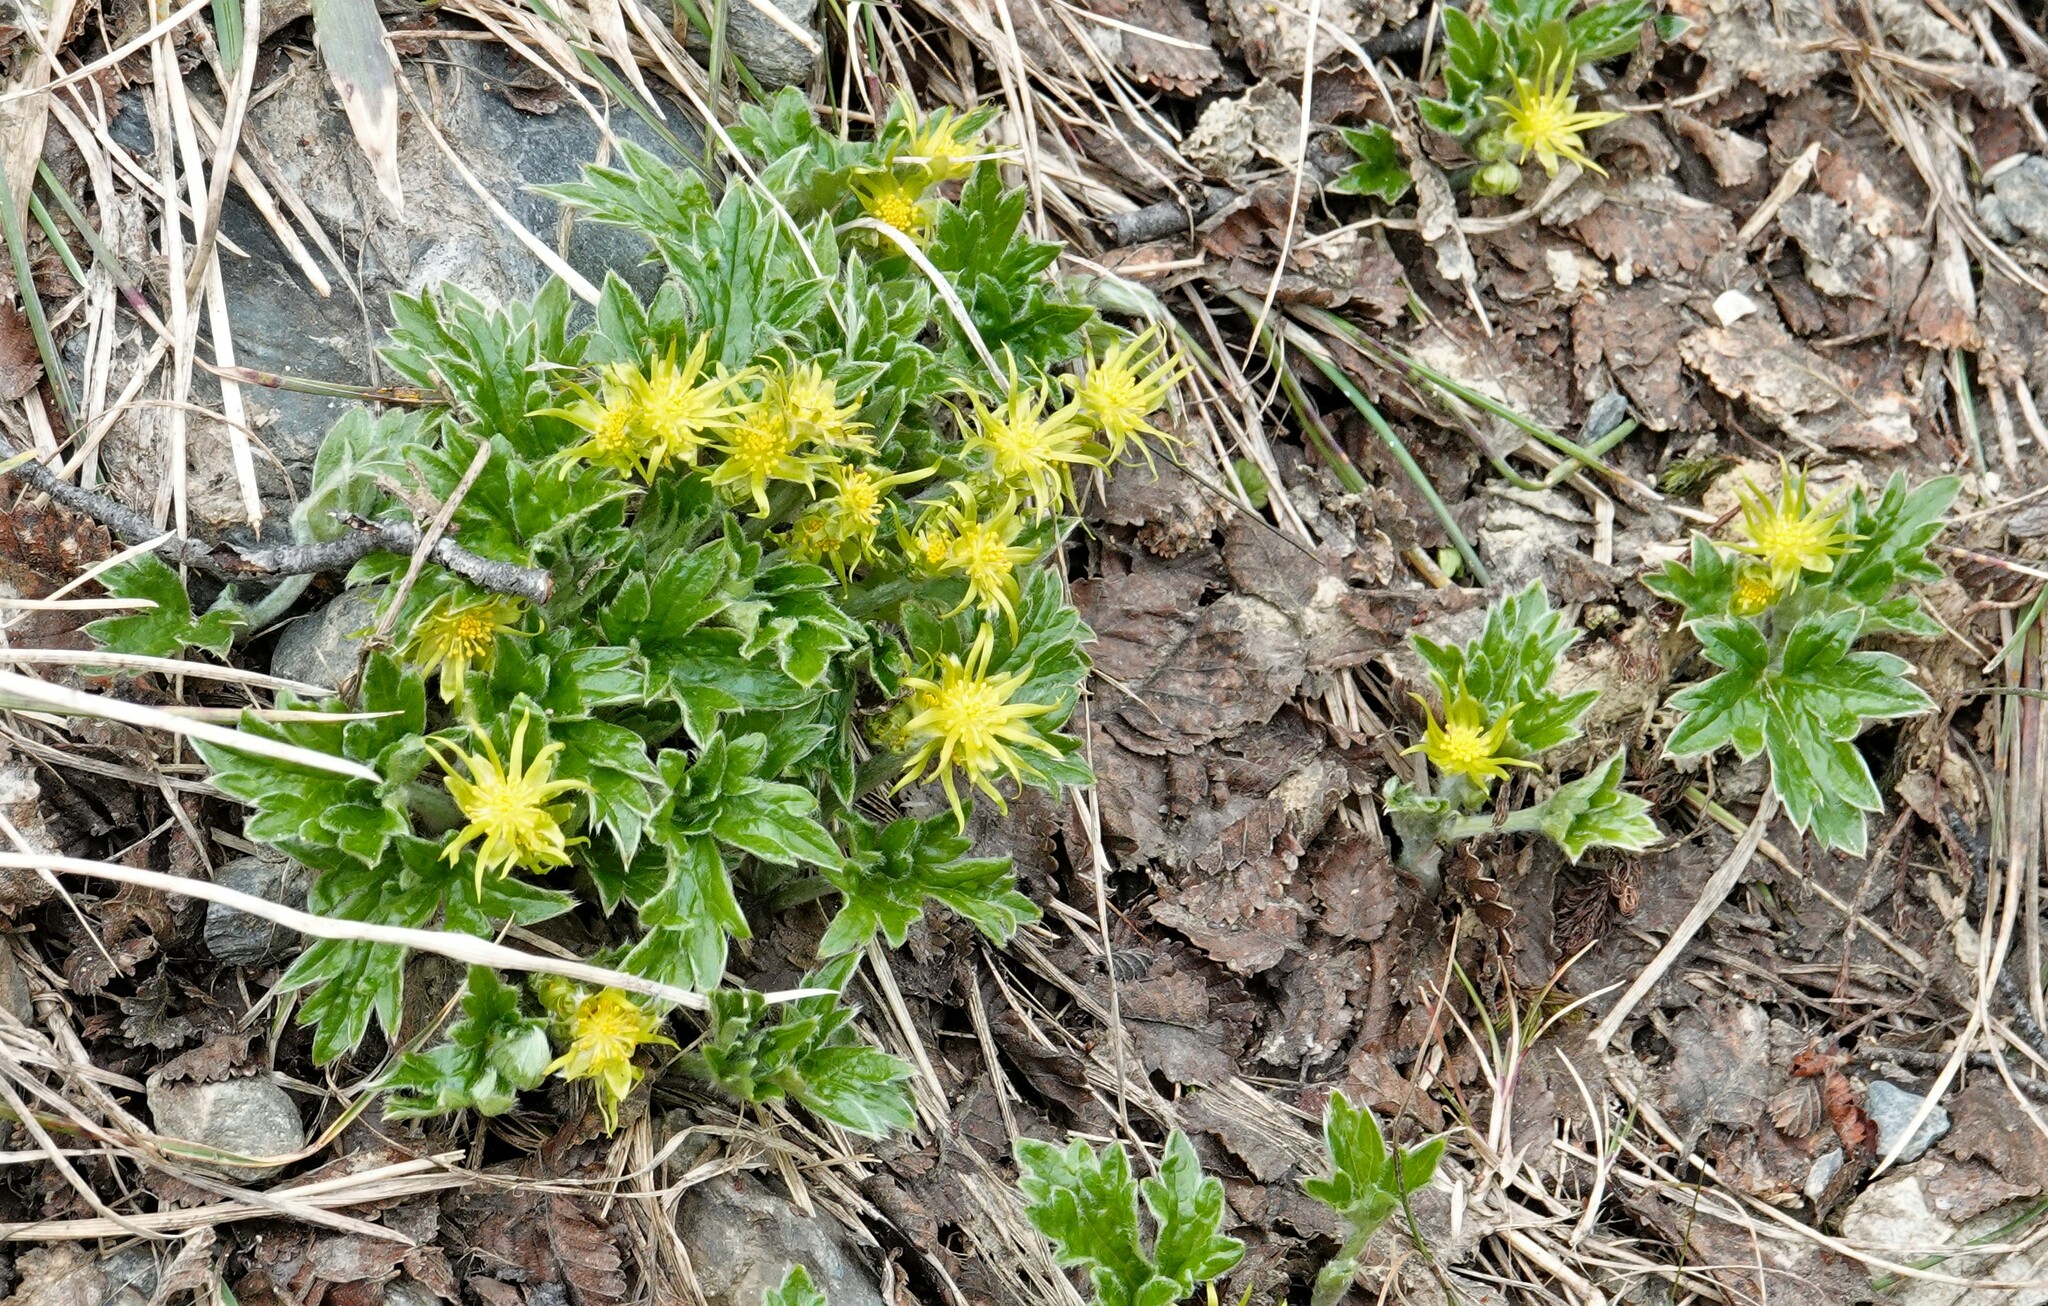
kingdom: Plantae
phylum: Tracheophyta
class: Magnoliopsida
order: Ranunculales
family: Ranunculaceae
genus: Hamadryas
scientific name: Hamadryas magellanica
